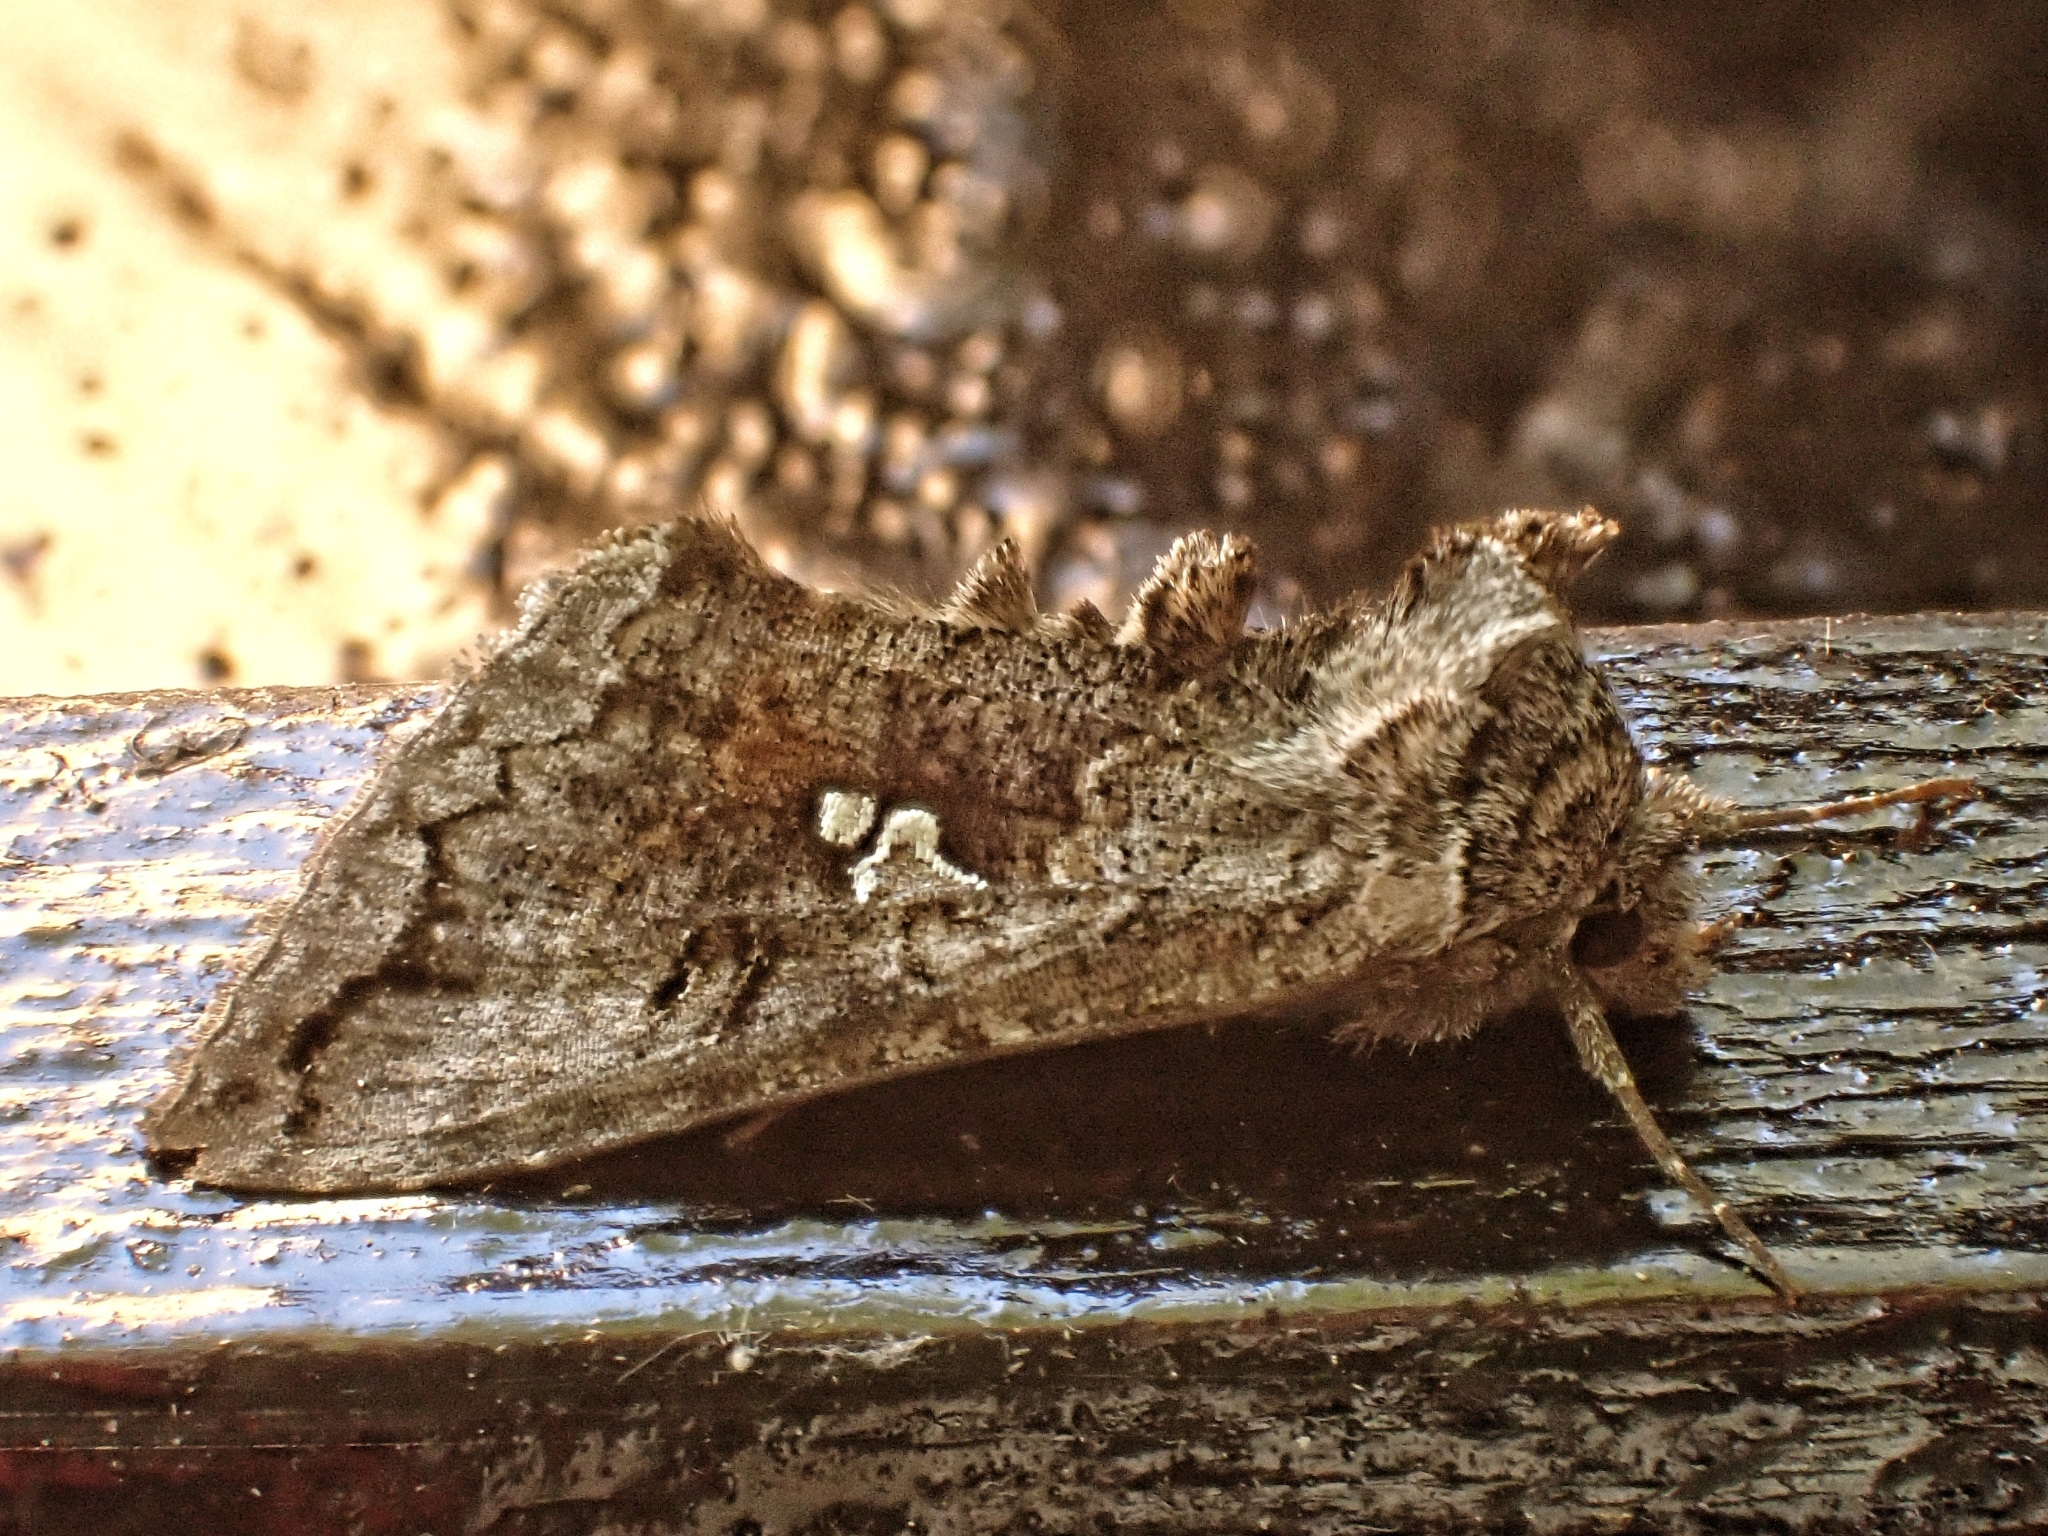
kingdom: Animalia
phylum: Arthropoda
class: Insecta
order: Lepidoptera
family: Noctuidae
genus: Syngrapha
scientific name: Syngrapha interrogationis
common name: Scarce silver y
